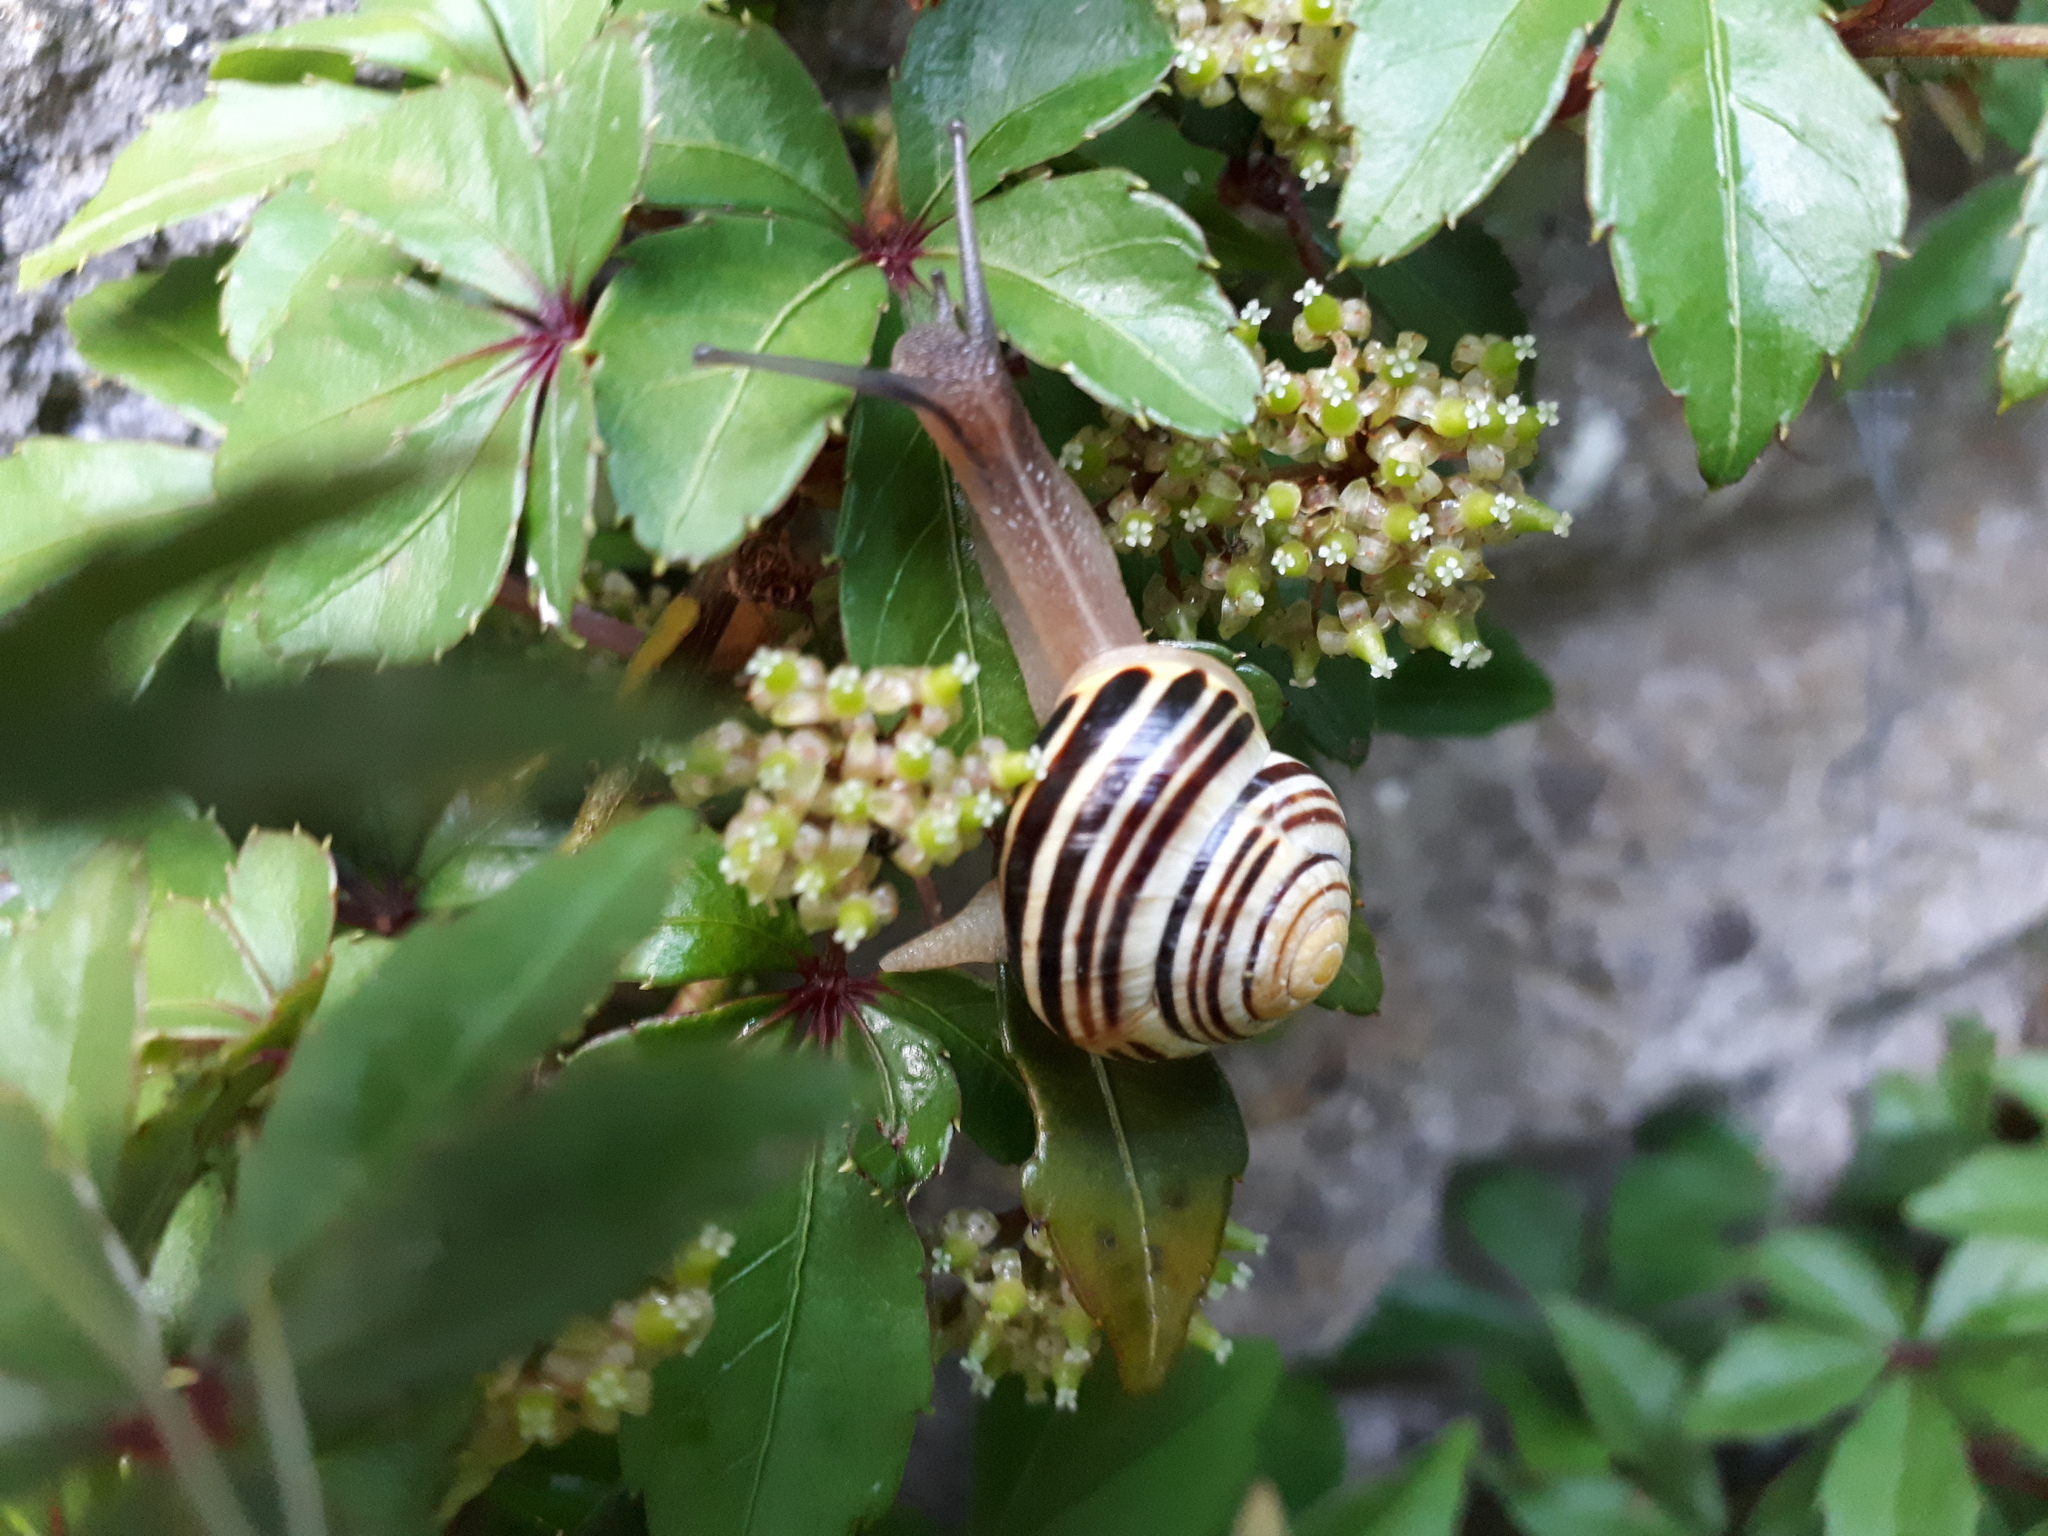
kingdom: Animalia
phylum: Mollusca
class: Gastropoda
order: Stylommatophora
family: Helicidae
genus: Cepaea
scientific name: Cepaea hortensis
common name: White-lip gardensnail
